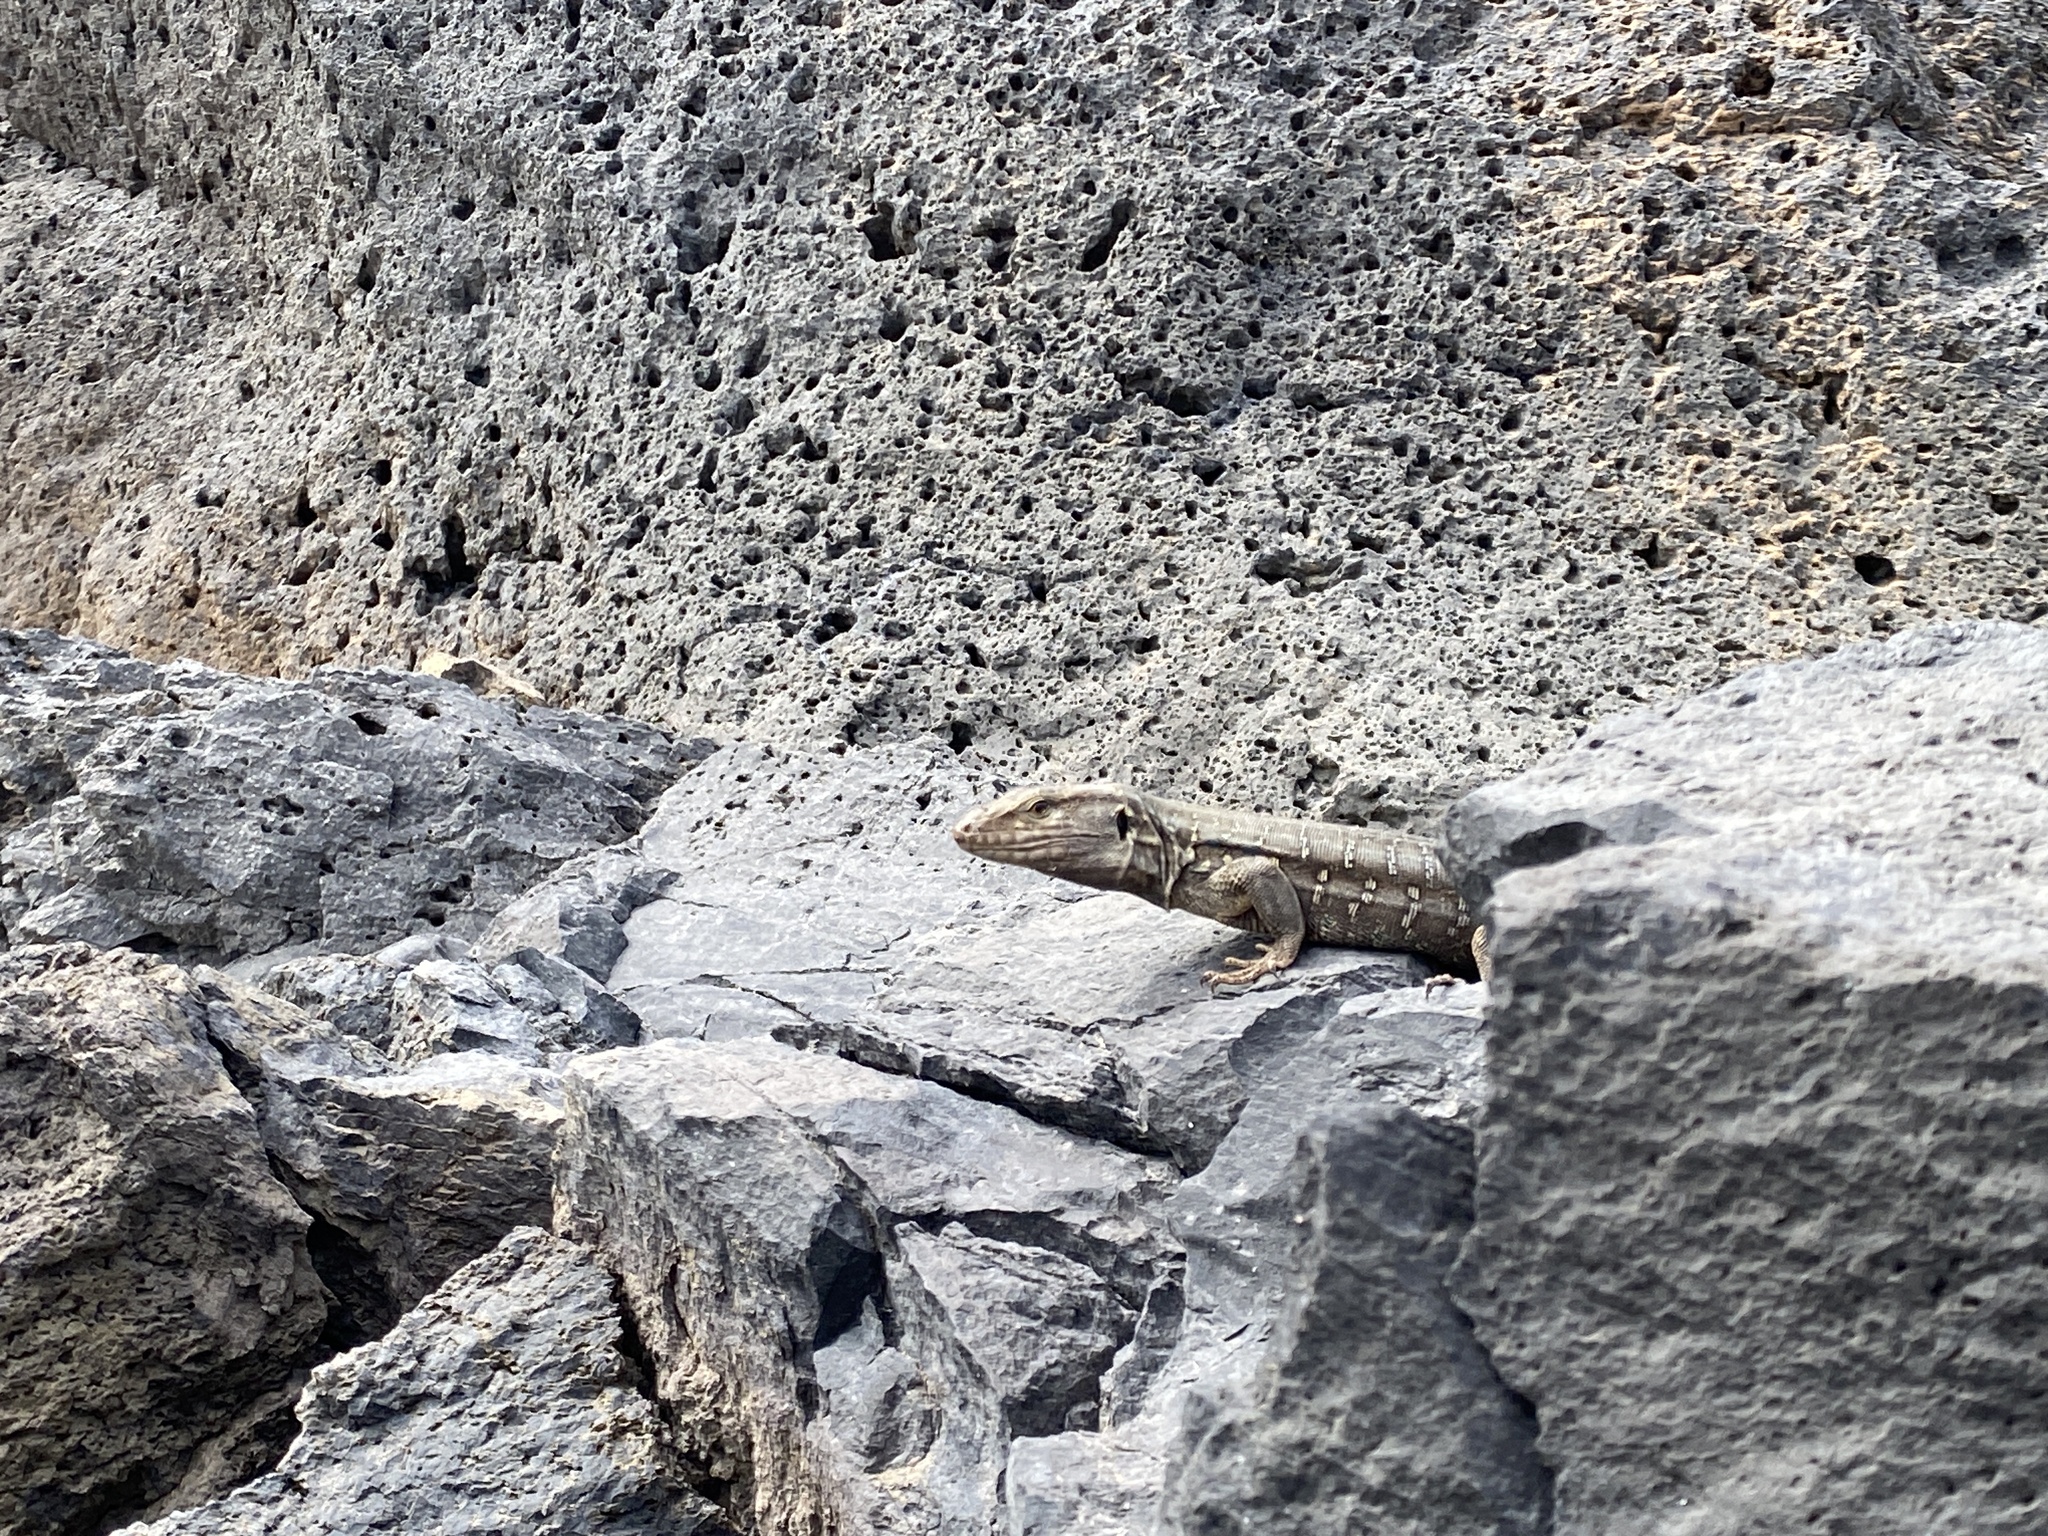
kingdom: Animalia
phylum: Chordata
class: Squamata
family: Lacertidae
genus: Gallotia
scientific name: Gallotia galloti
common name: Gallot's lizard
